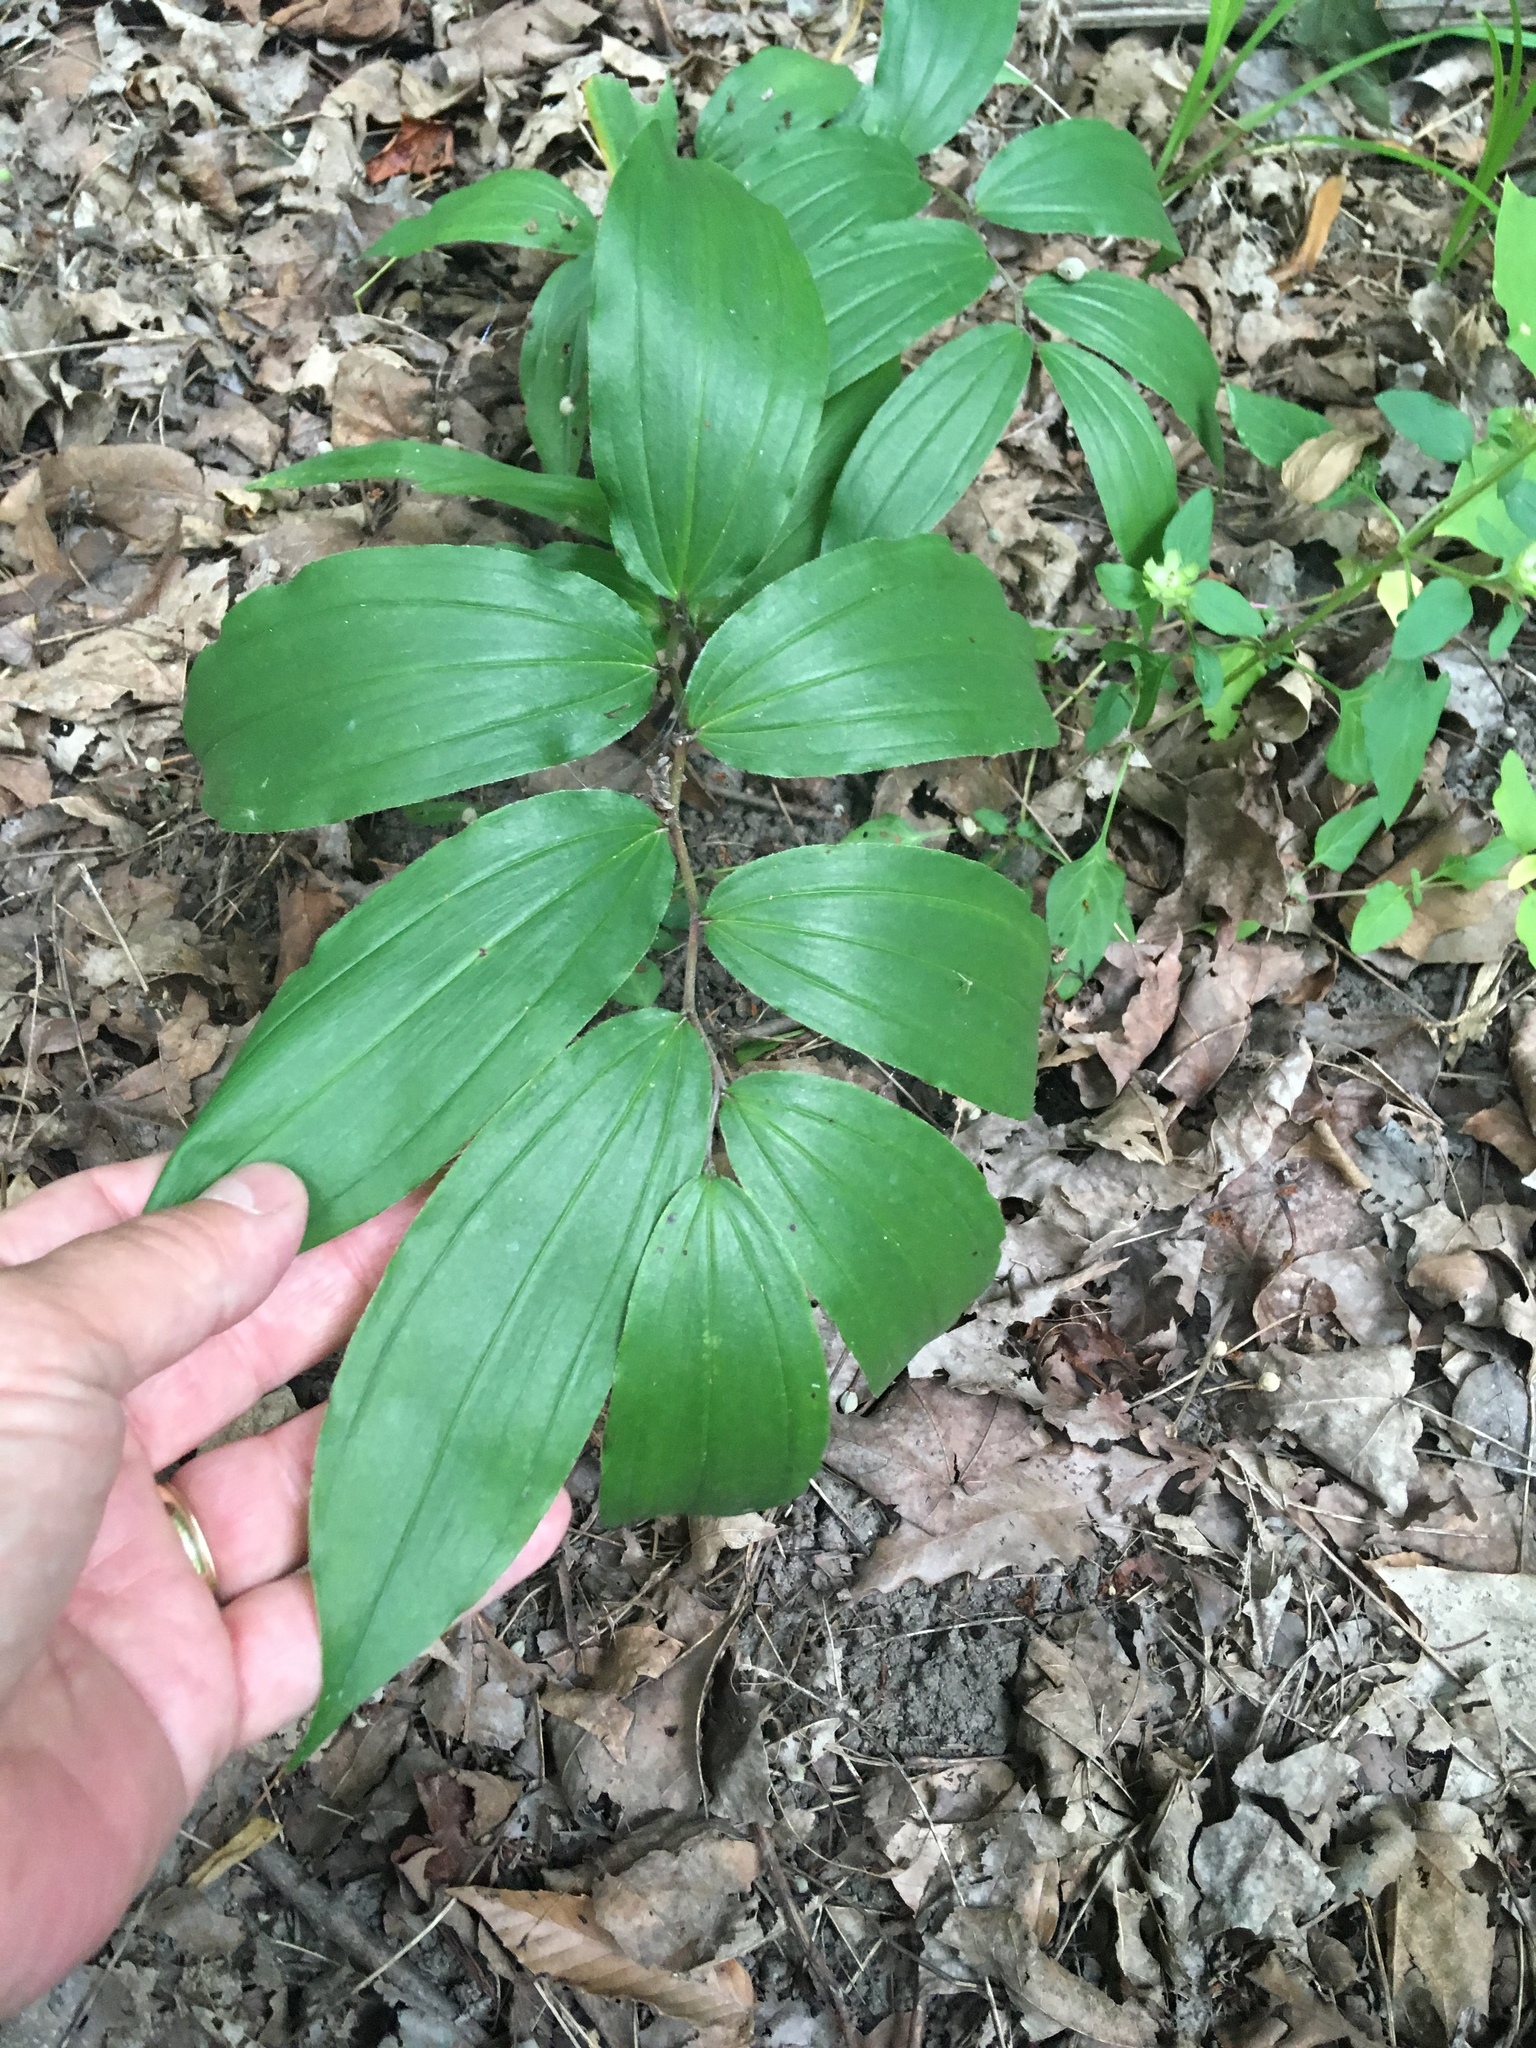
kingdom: Plantae
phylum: Tracheophyta
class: Liliopsida
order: Asparagales
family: Asparagaceae
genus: Maianthemum
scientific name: Maianthemum racemosum
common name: False spikenard
